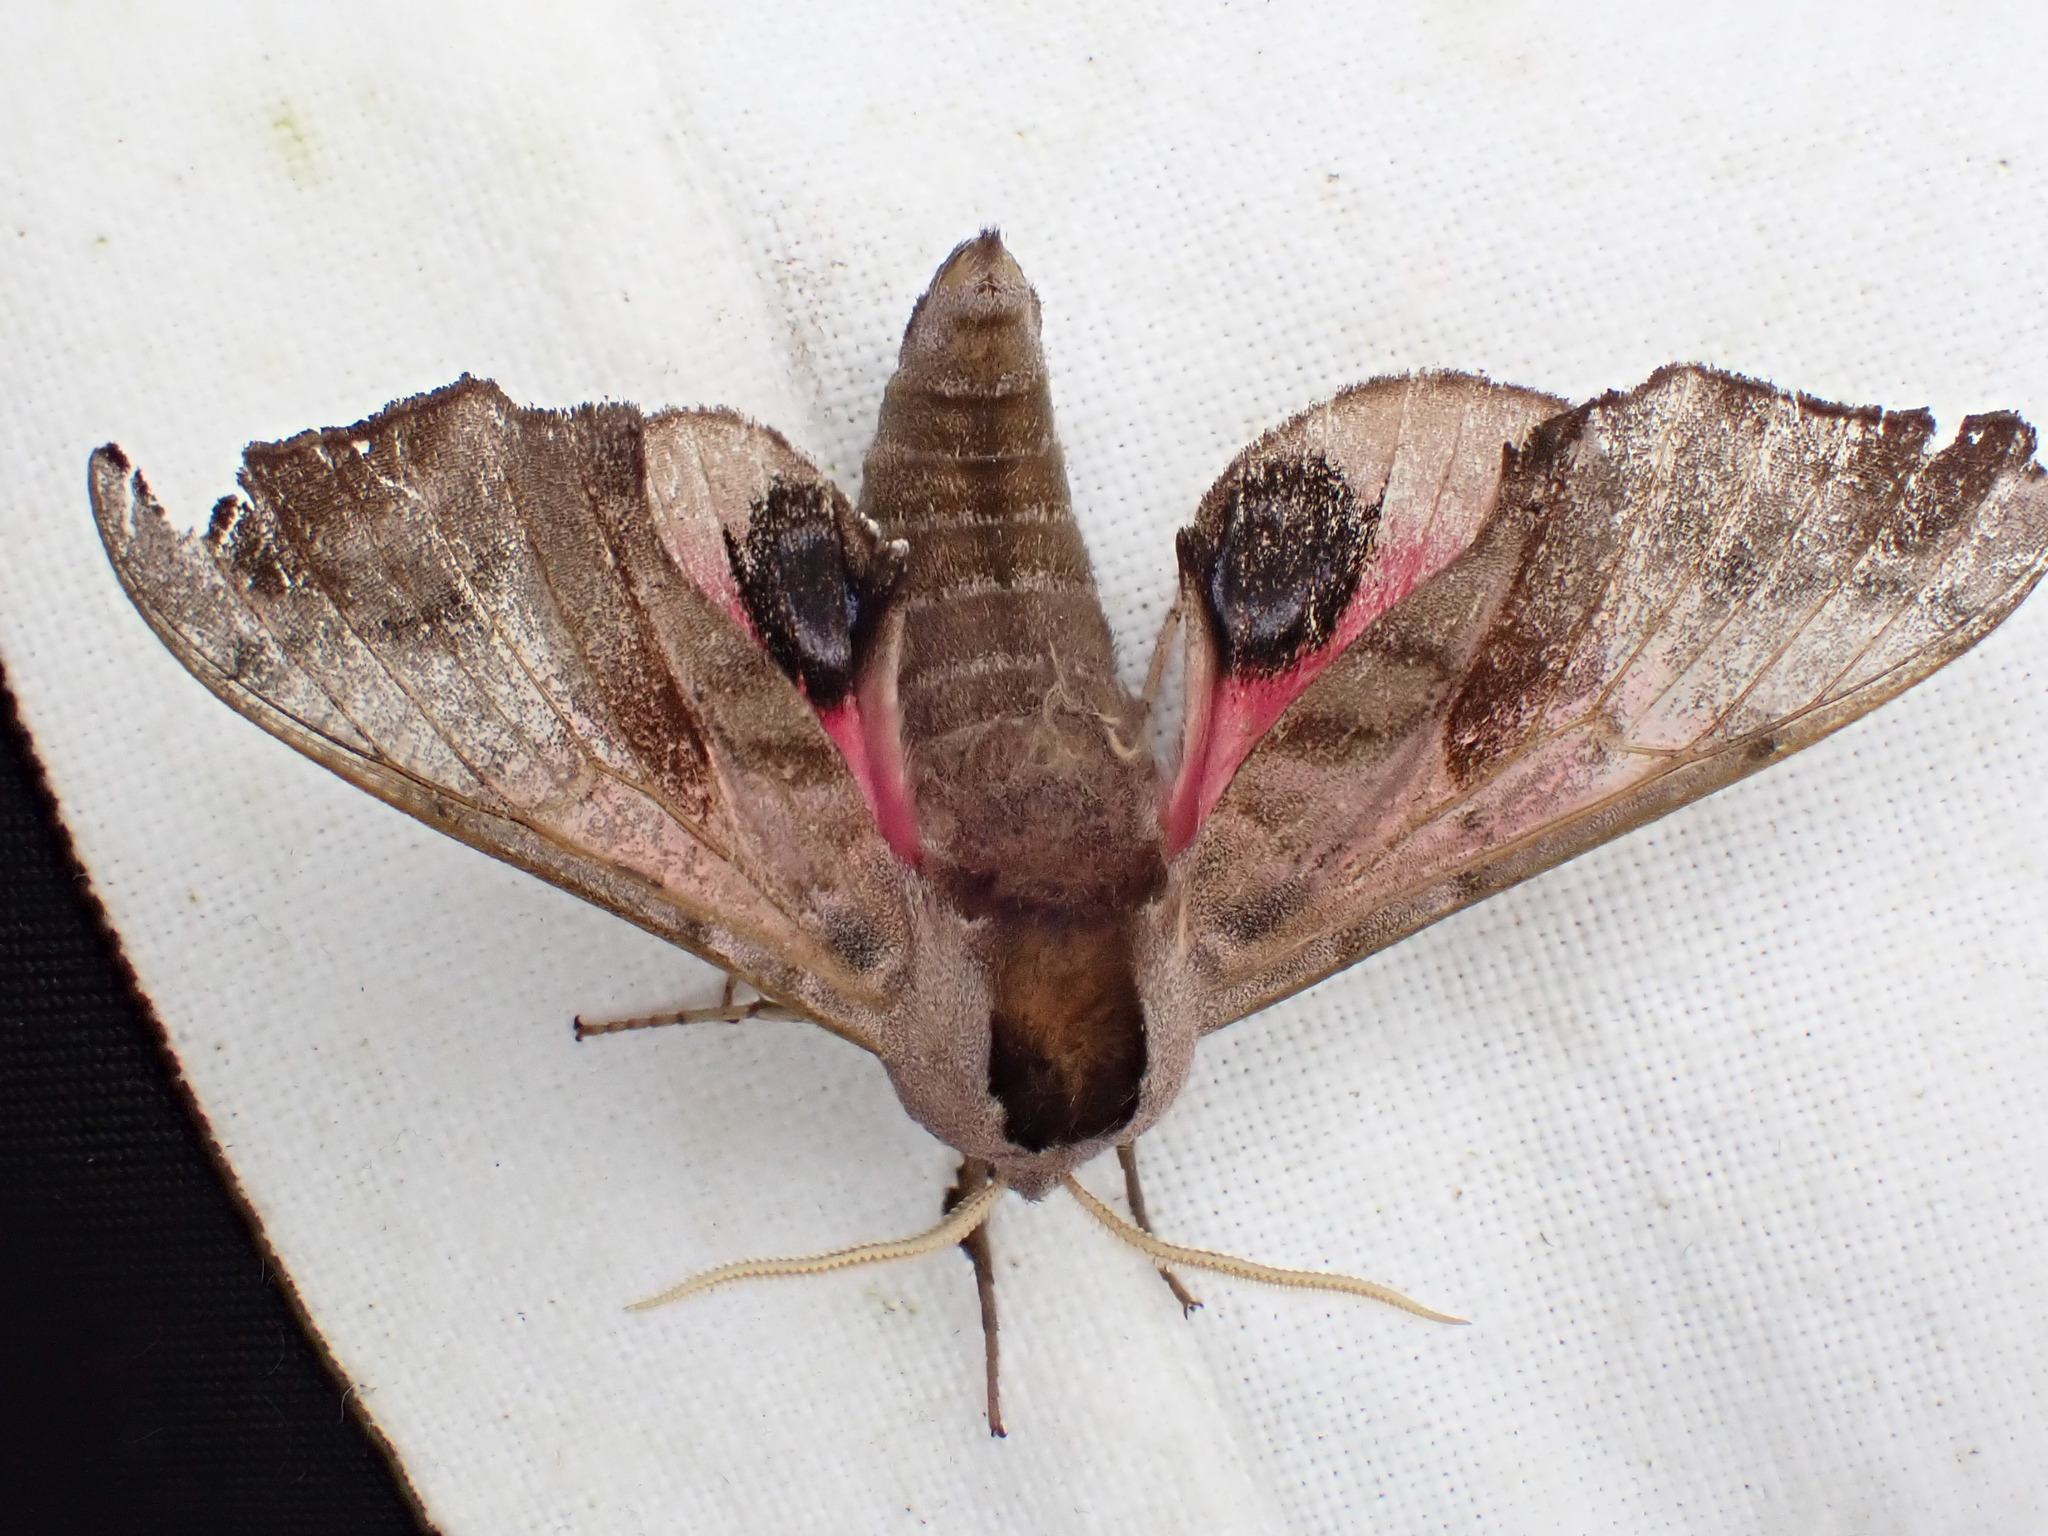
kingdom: Animalia
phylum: Arthropoda
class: Insecta
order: Lepidoptera
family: Sphingidae
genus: Smerinthus
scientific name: Smerinthus ocellata
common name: Eyed hawk-moth
